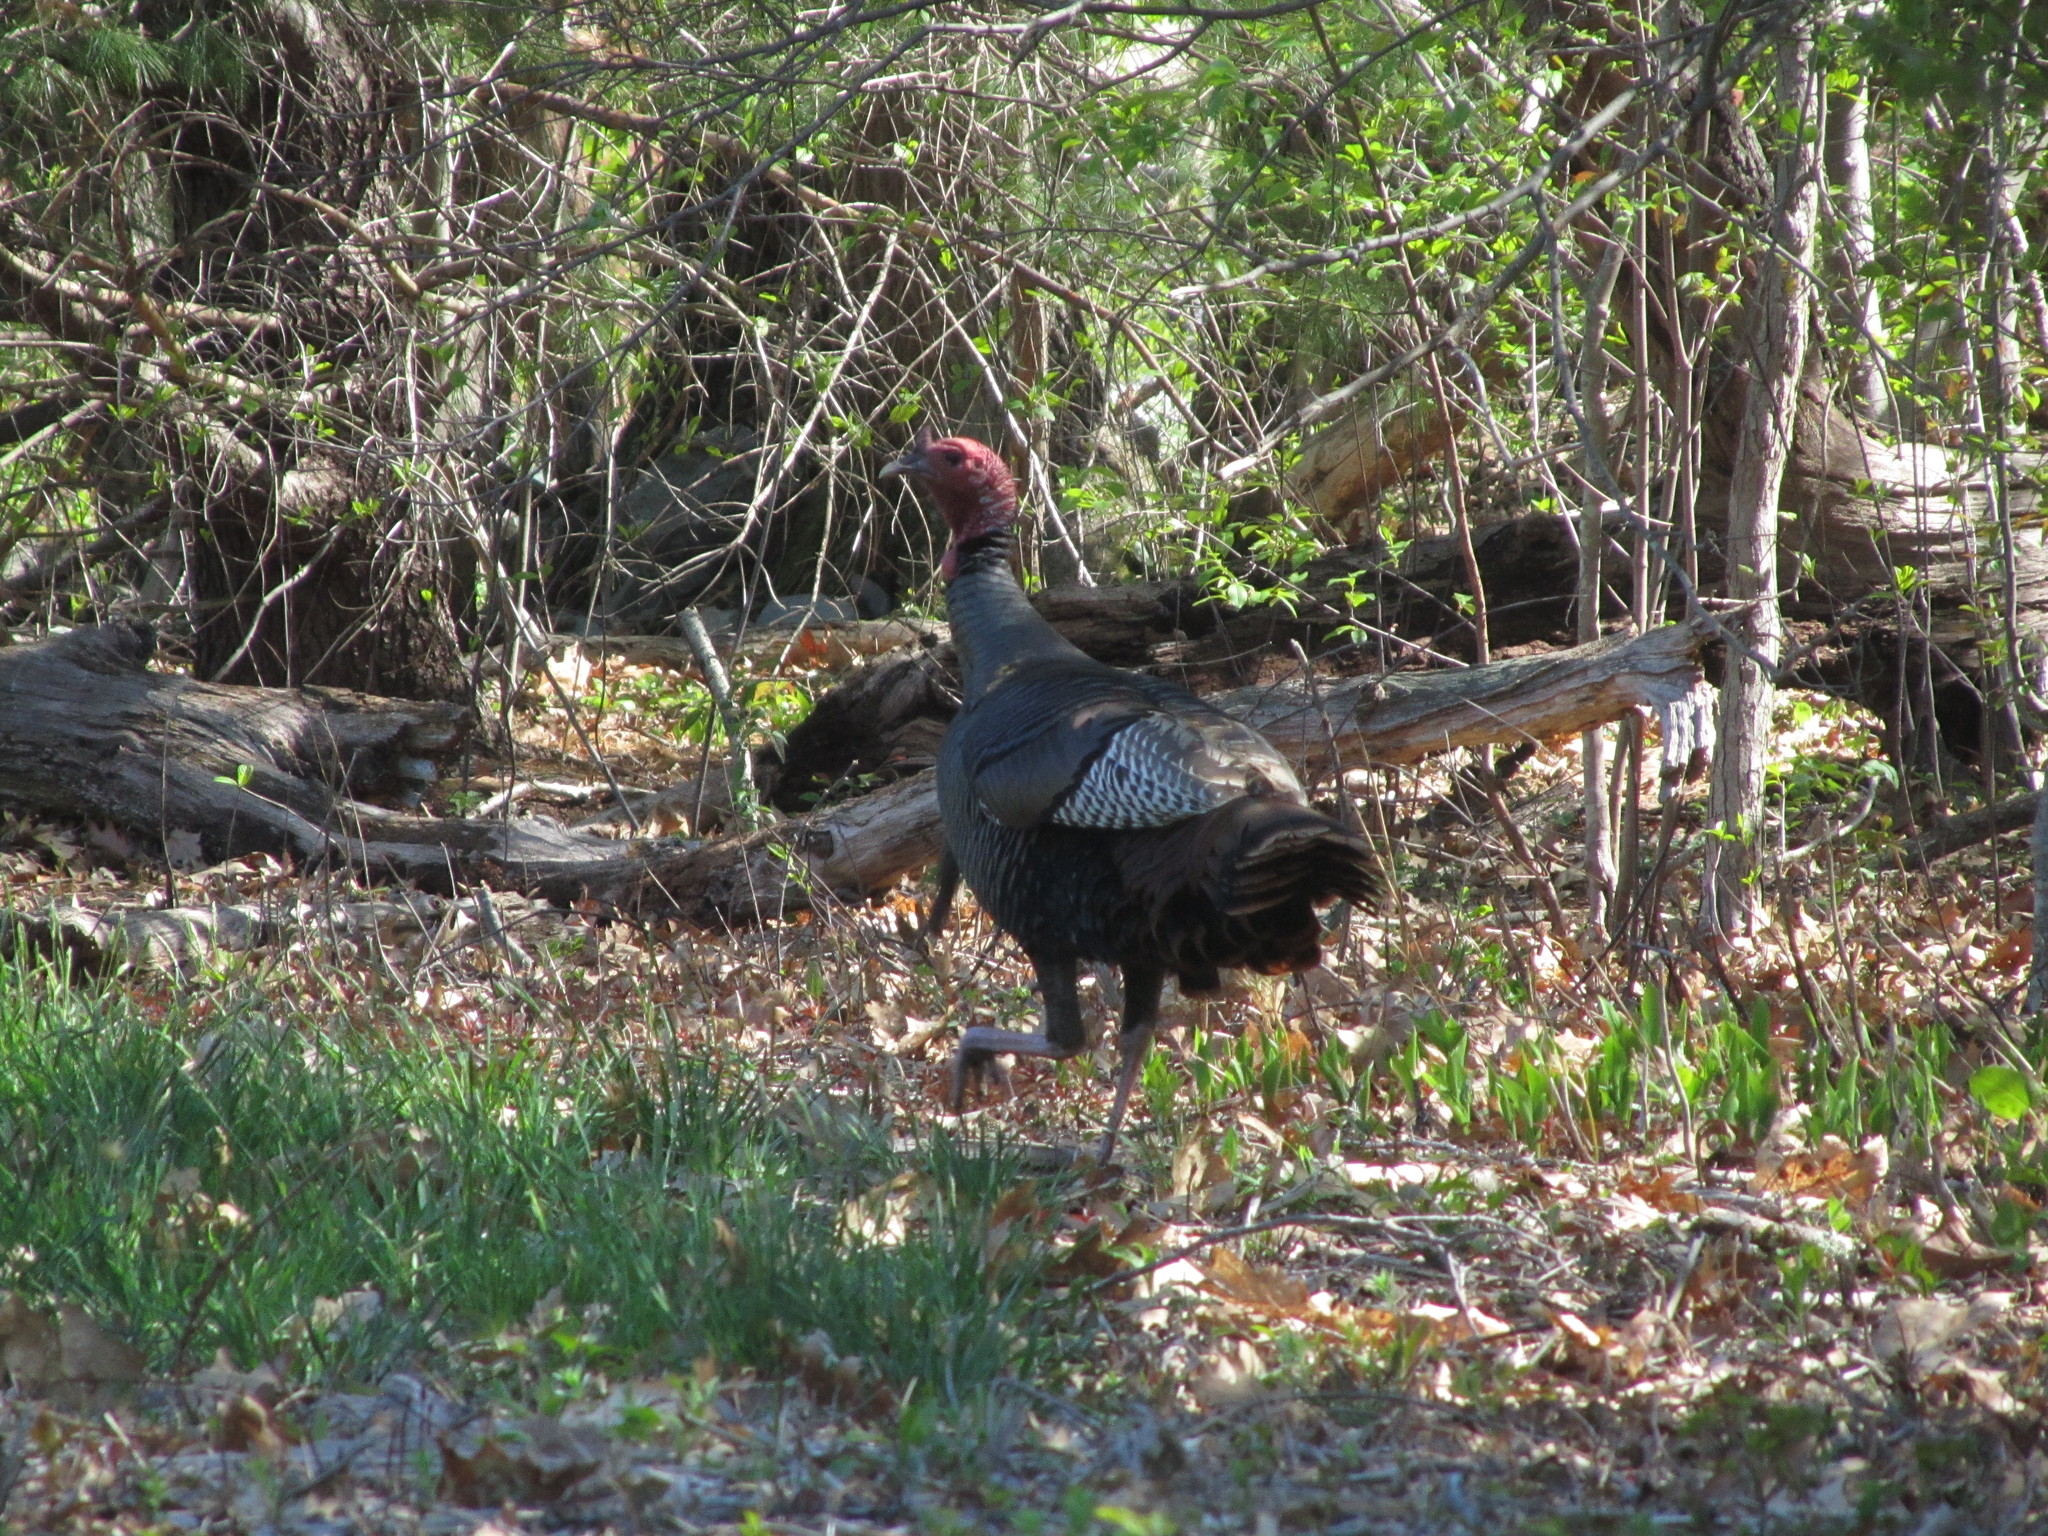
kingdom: Animalia
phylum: Chordata
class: Aves
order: Galliformes
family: Phasianidae
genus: Meleagris
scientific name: Meleagris gallopavo
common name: Wild turkey
